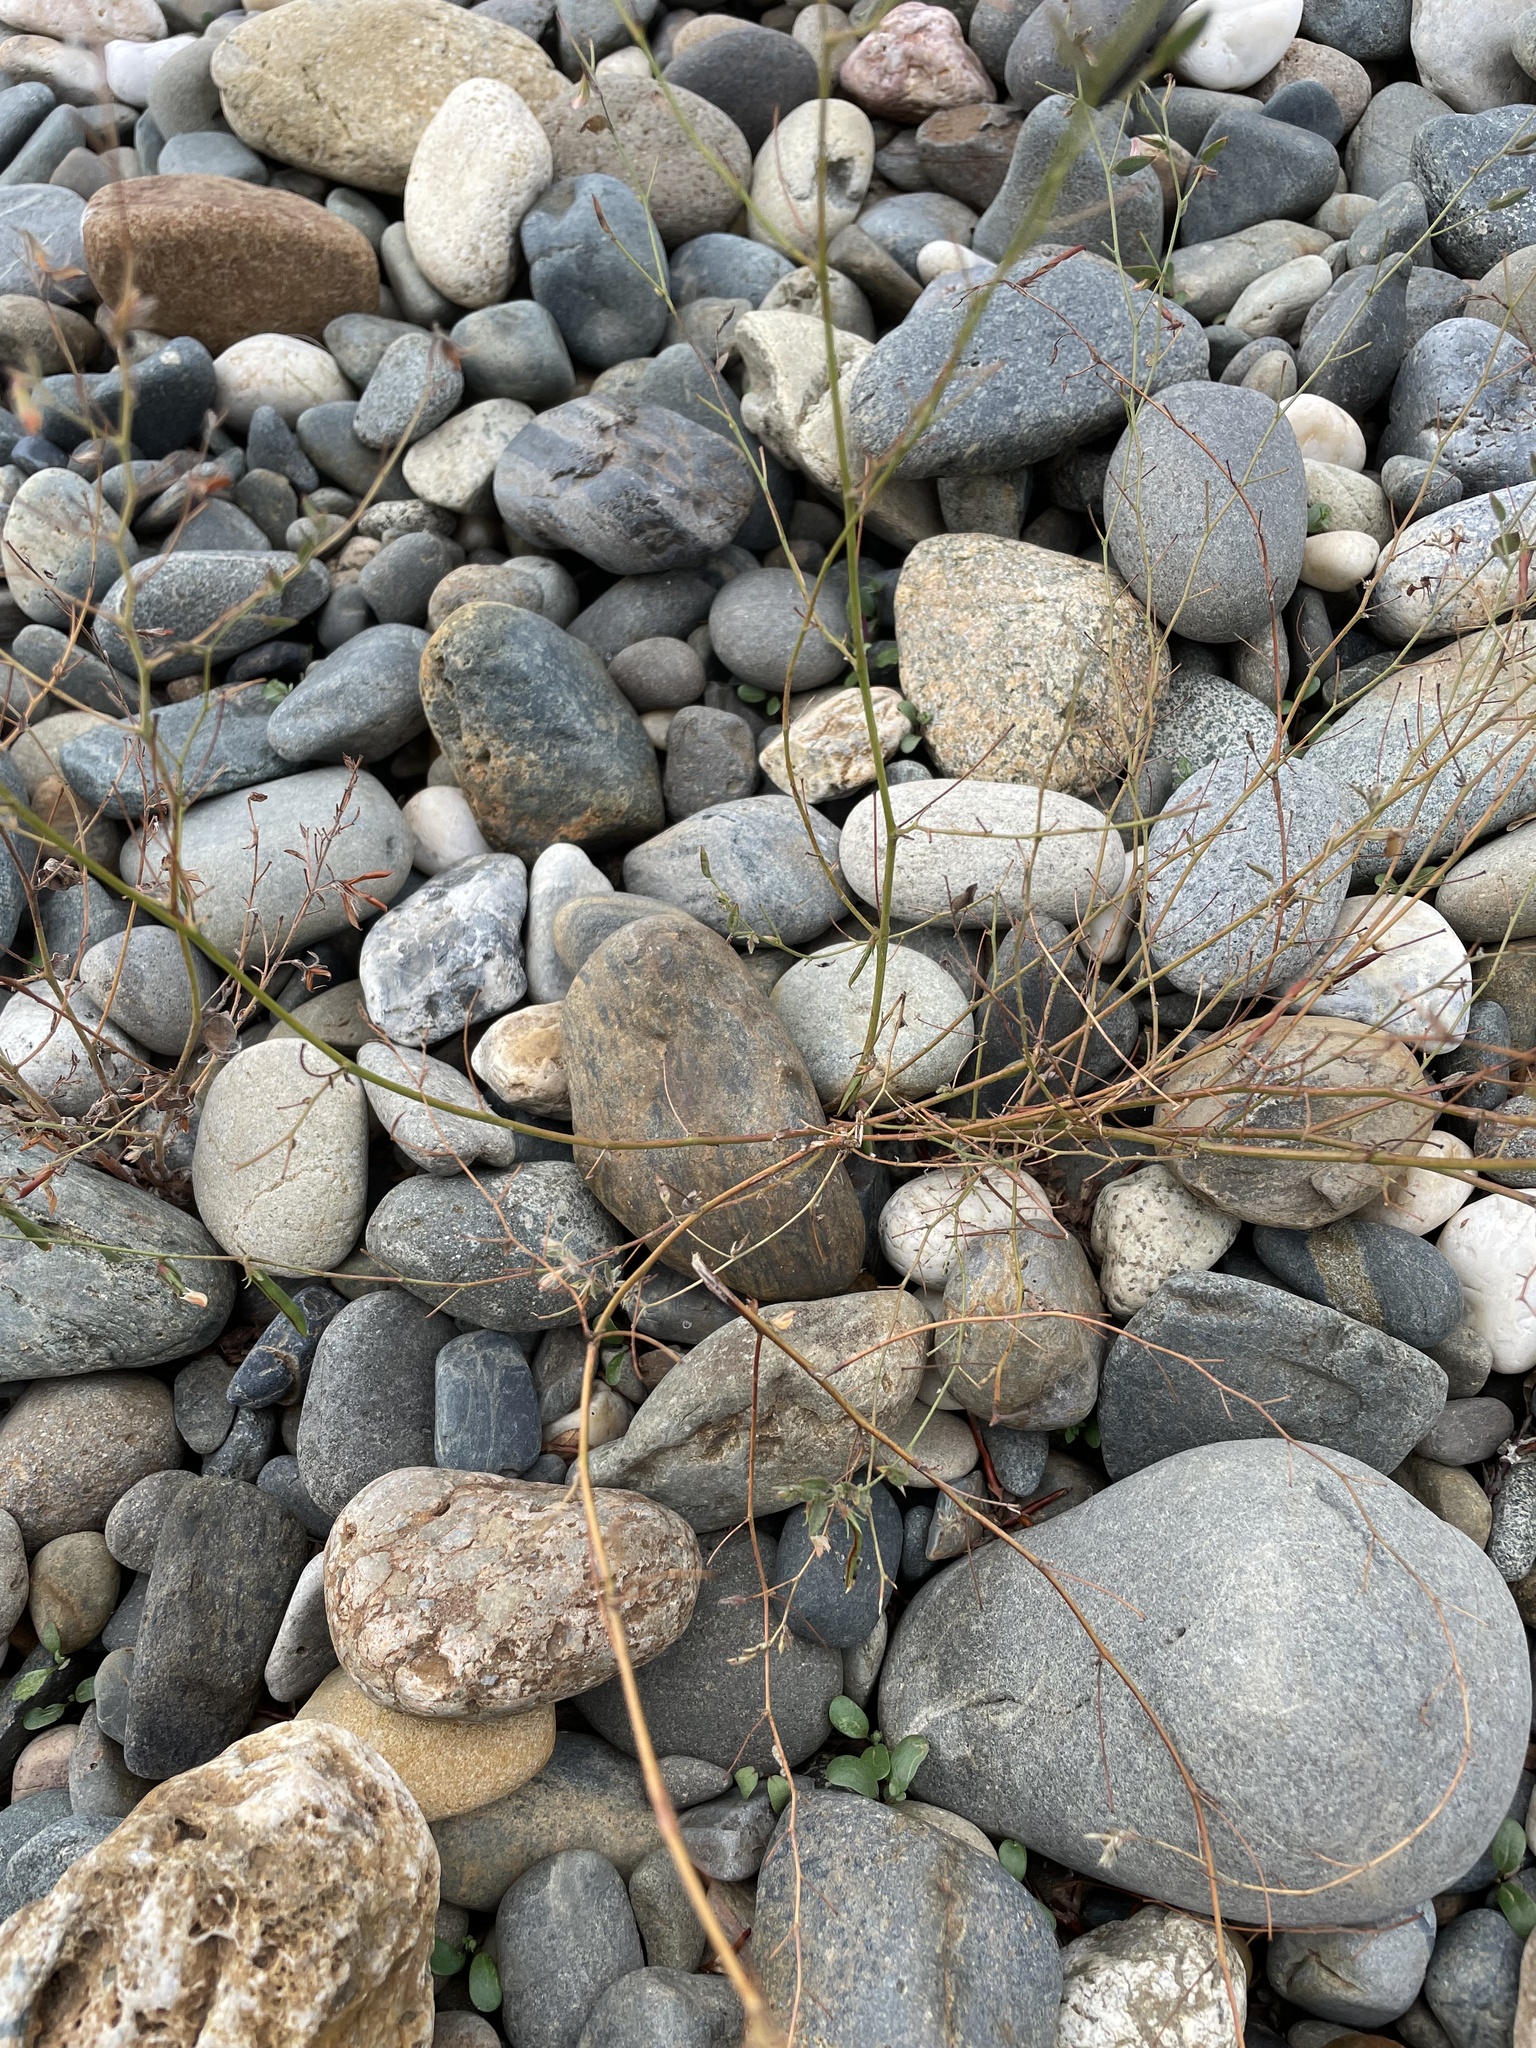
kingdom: Plantae
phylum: Tracheophyta
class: Magnoliopsida
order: Fabales
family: Fabaceae
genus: Acmispon
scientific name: Acmispon americanus
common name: American bird's-foot trefoil
